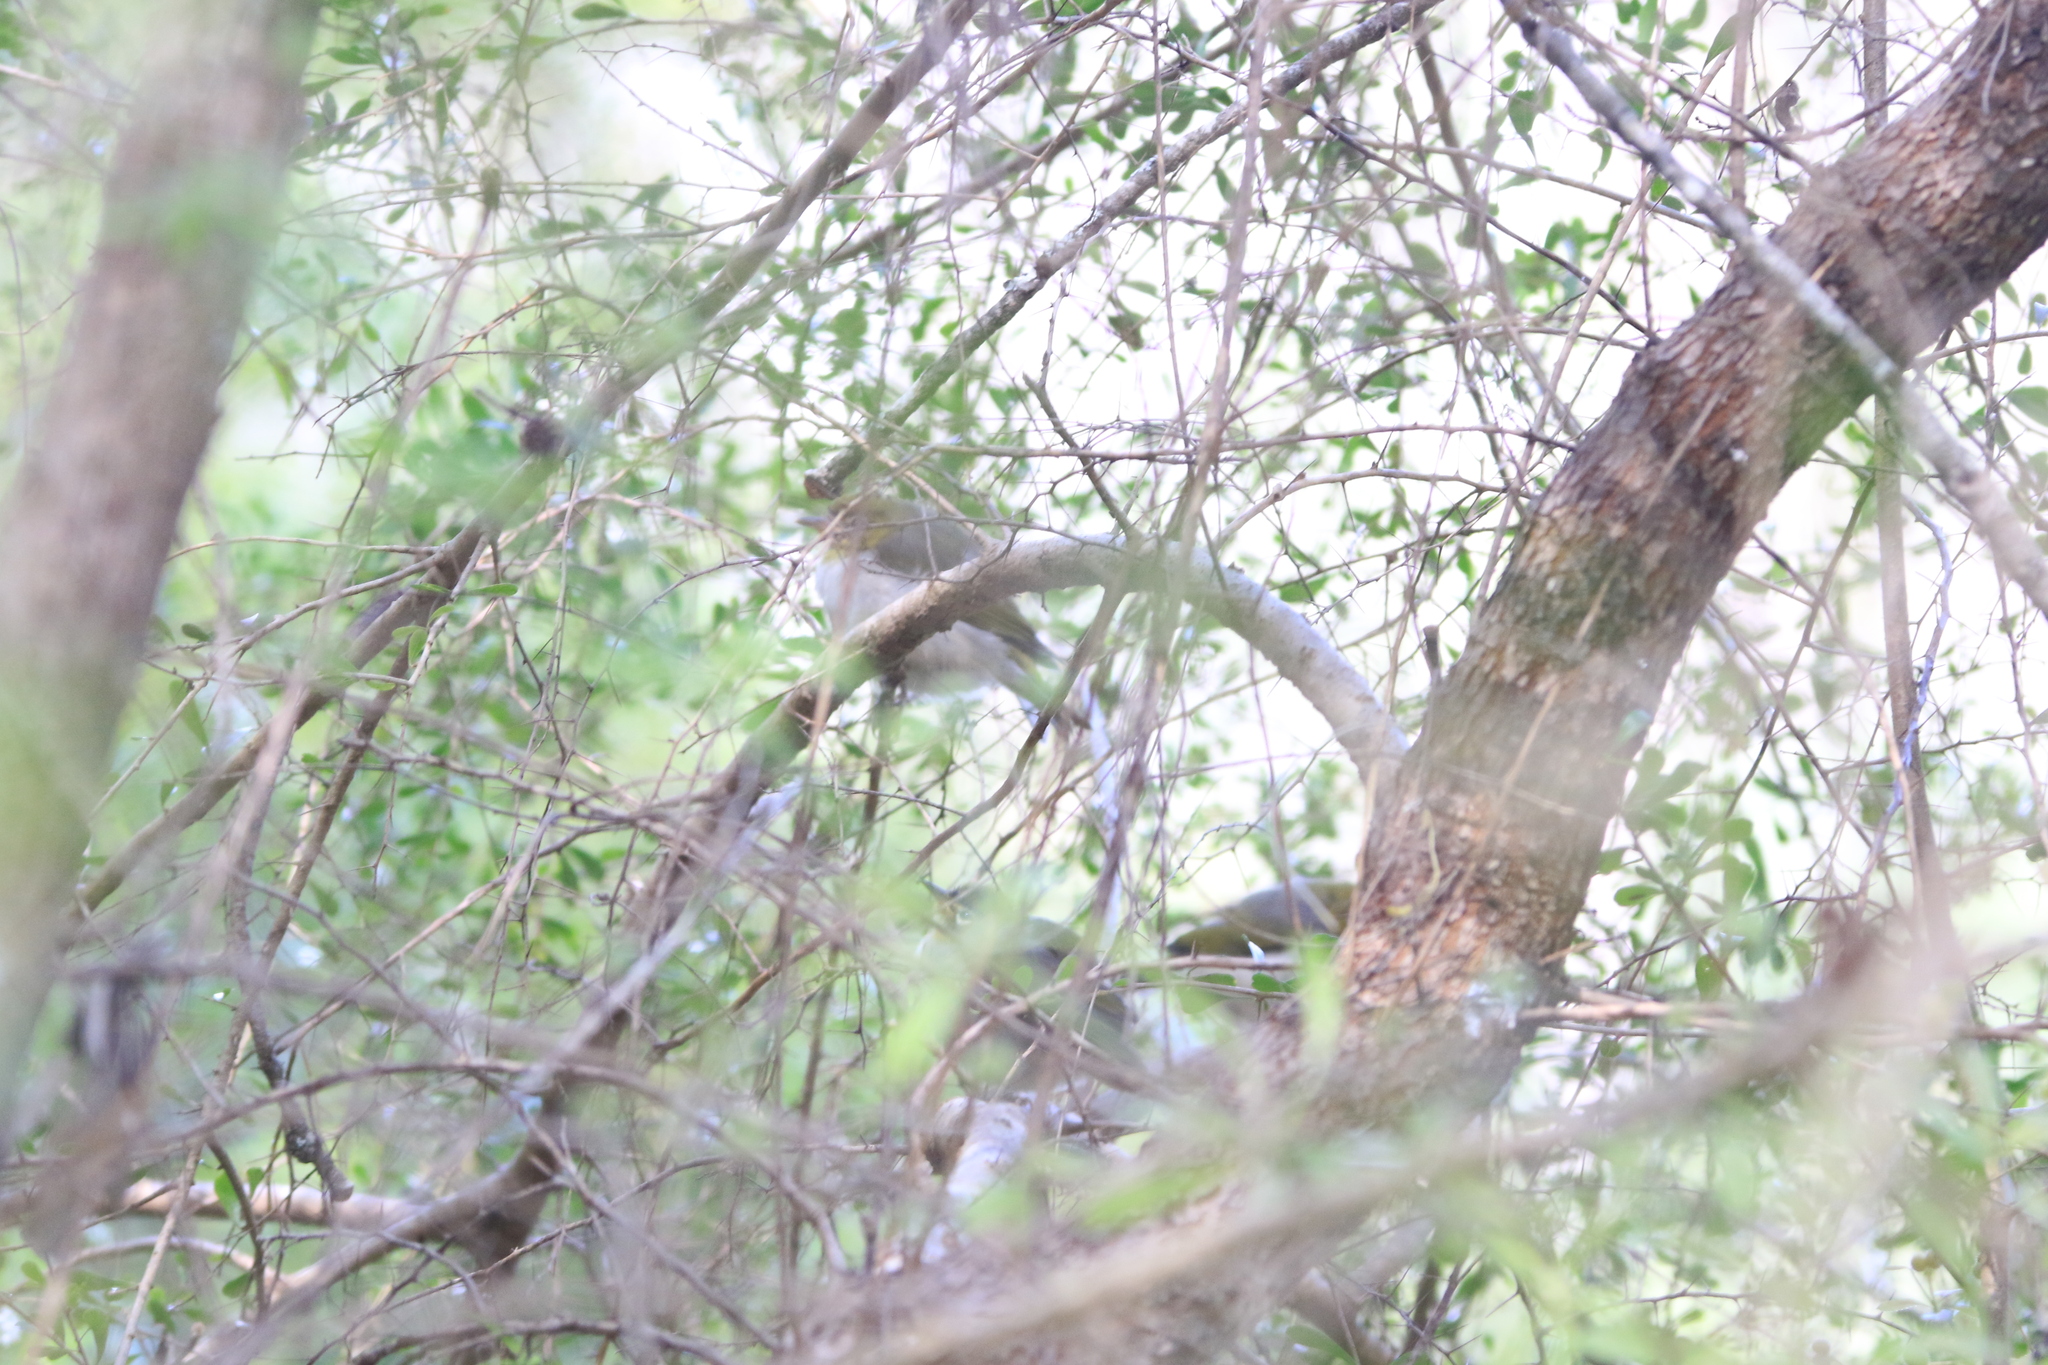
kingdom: Animalia
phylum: Chordata
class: Aves
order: Passeriformes
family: Zosteropidae
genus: Zosterops
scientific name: Zosterops lateralis
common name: Silvereye
